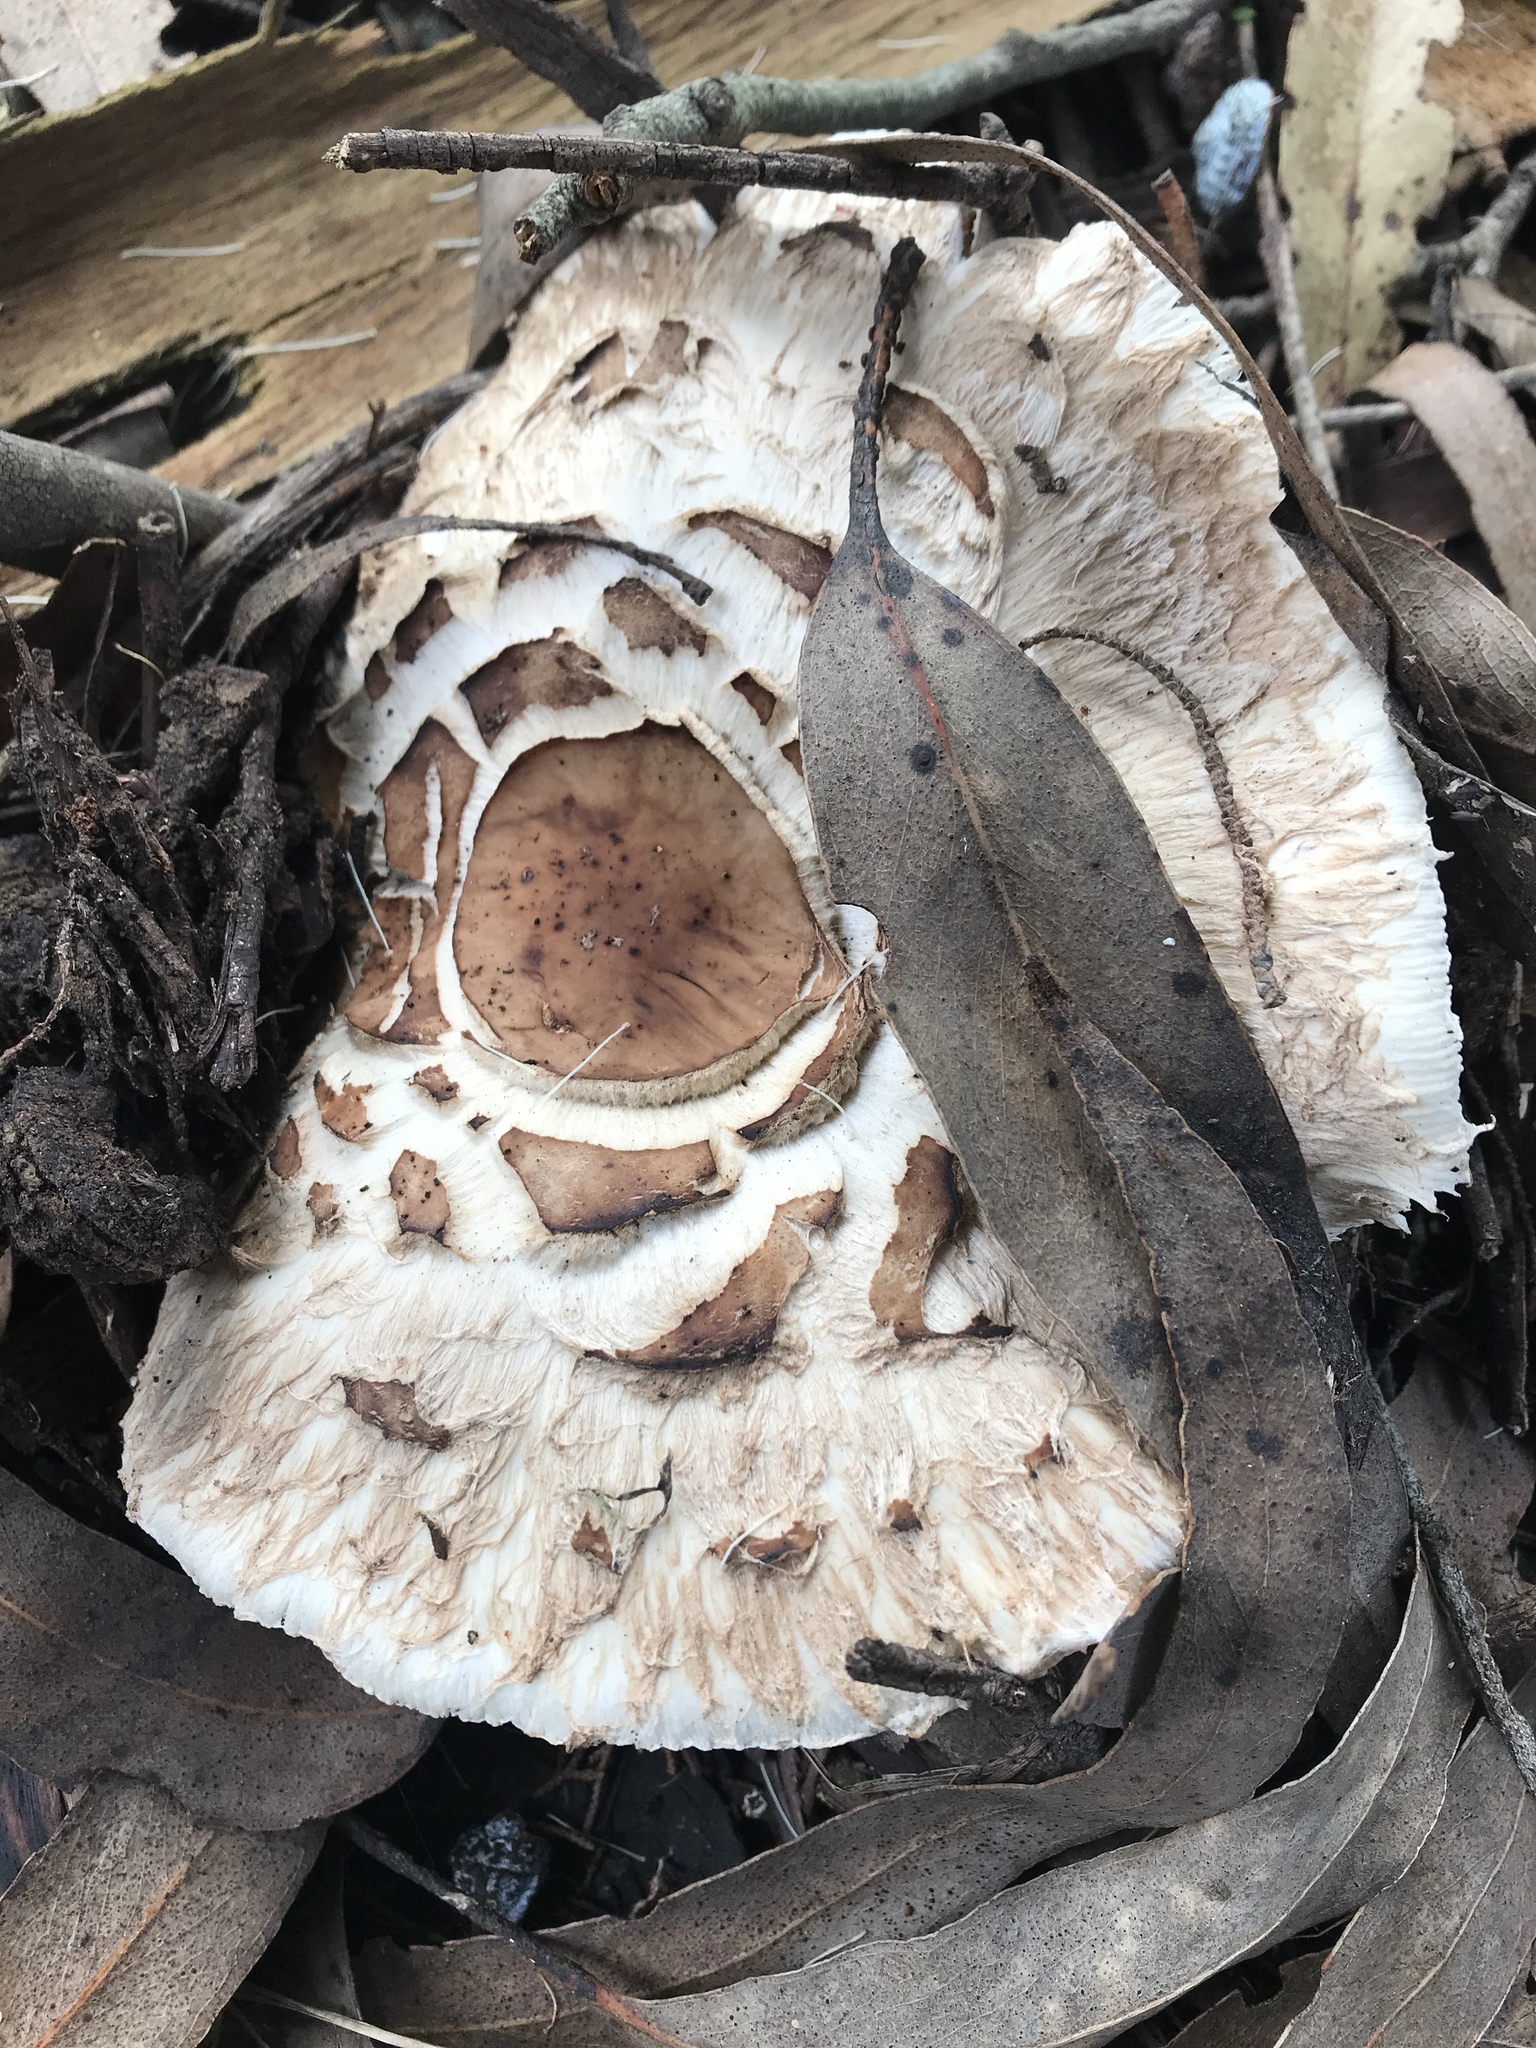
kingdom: Fungi
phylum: Basidiomycota
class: Agaricomycetes
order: Agaricales
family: Agaricaceae
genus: Chlorophyllum
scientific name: Chlorophyllum brunneum
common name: Brown parasol
